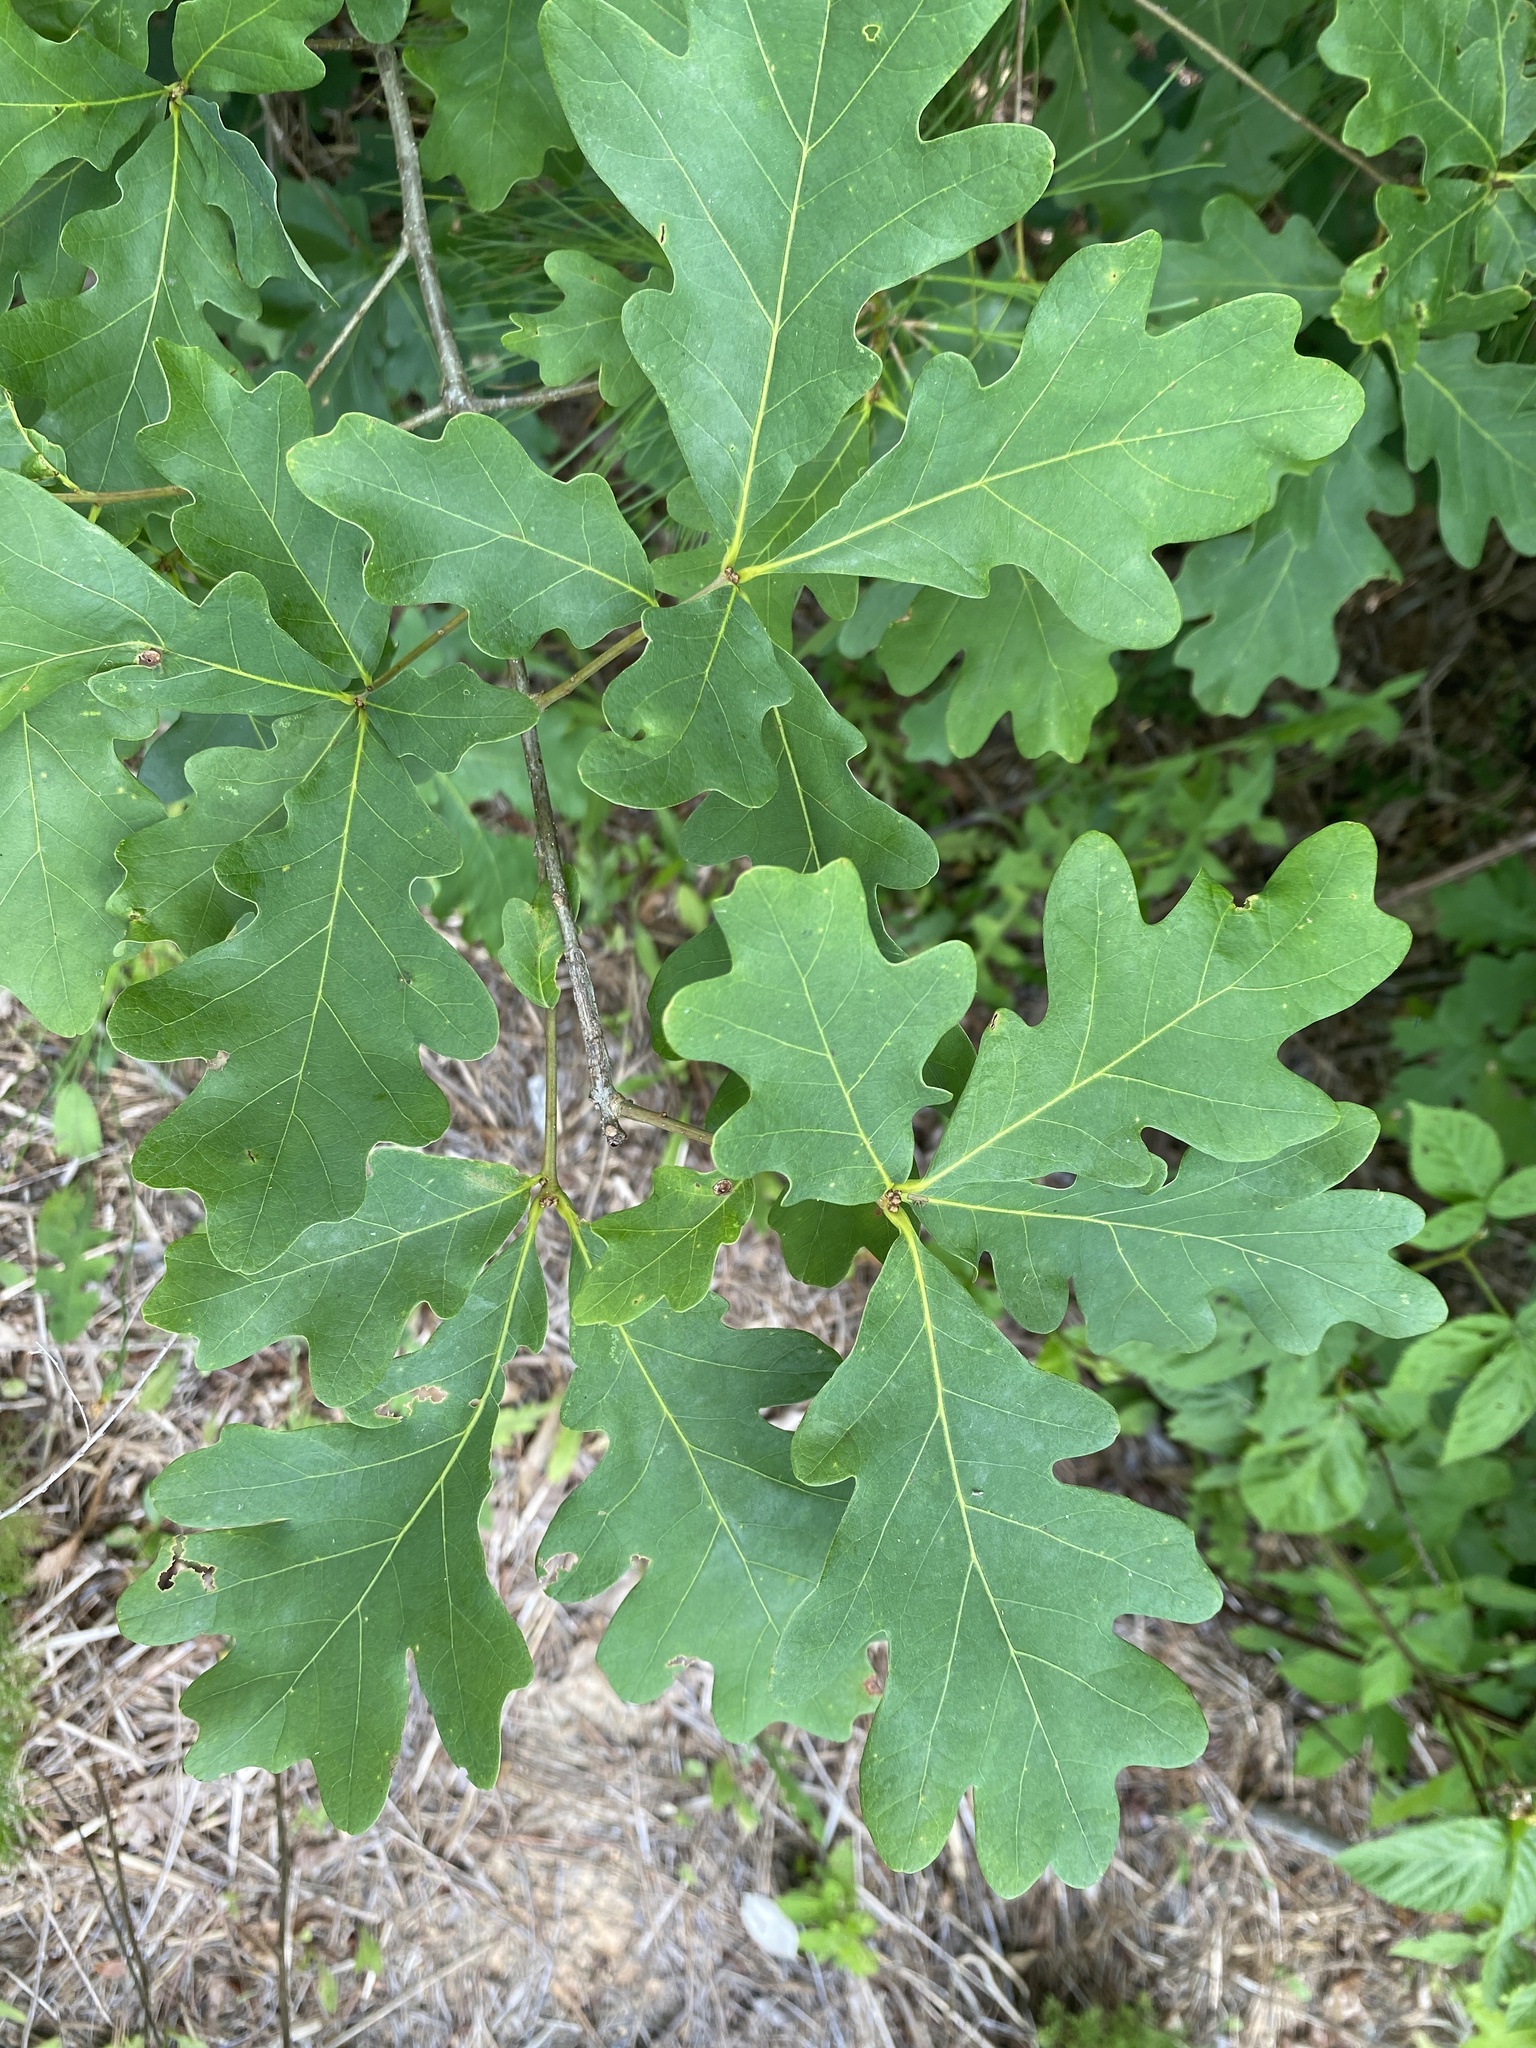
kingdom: Plantae
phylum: Tracheophyta
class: Magnoliopsida
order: Fagales
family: Fagaceae
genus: Quercus
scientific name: Quercus alba
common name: White oak
